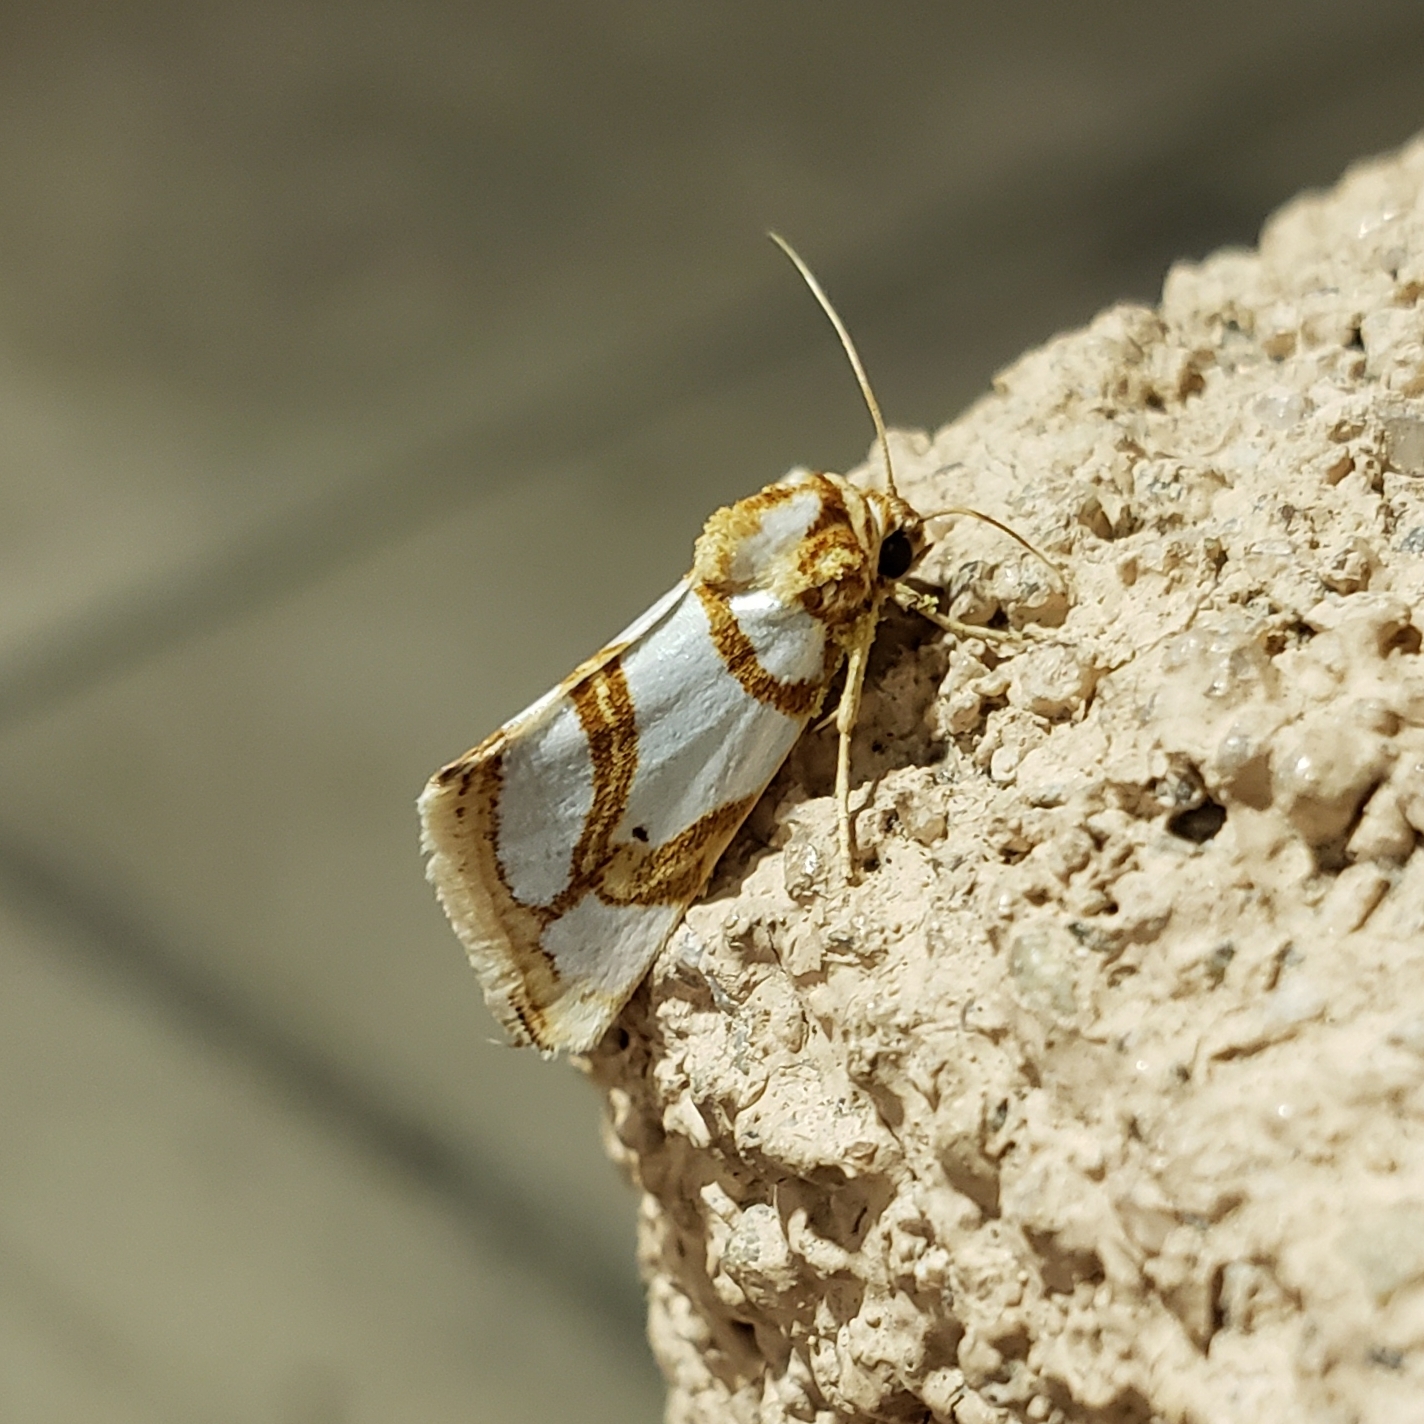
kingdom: Animalia
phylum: Arthropoda
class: Insecta
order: Lepidoptera
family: Noctuidae
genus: Argentostiria
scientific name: Argentostiria koebelei
